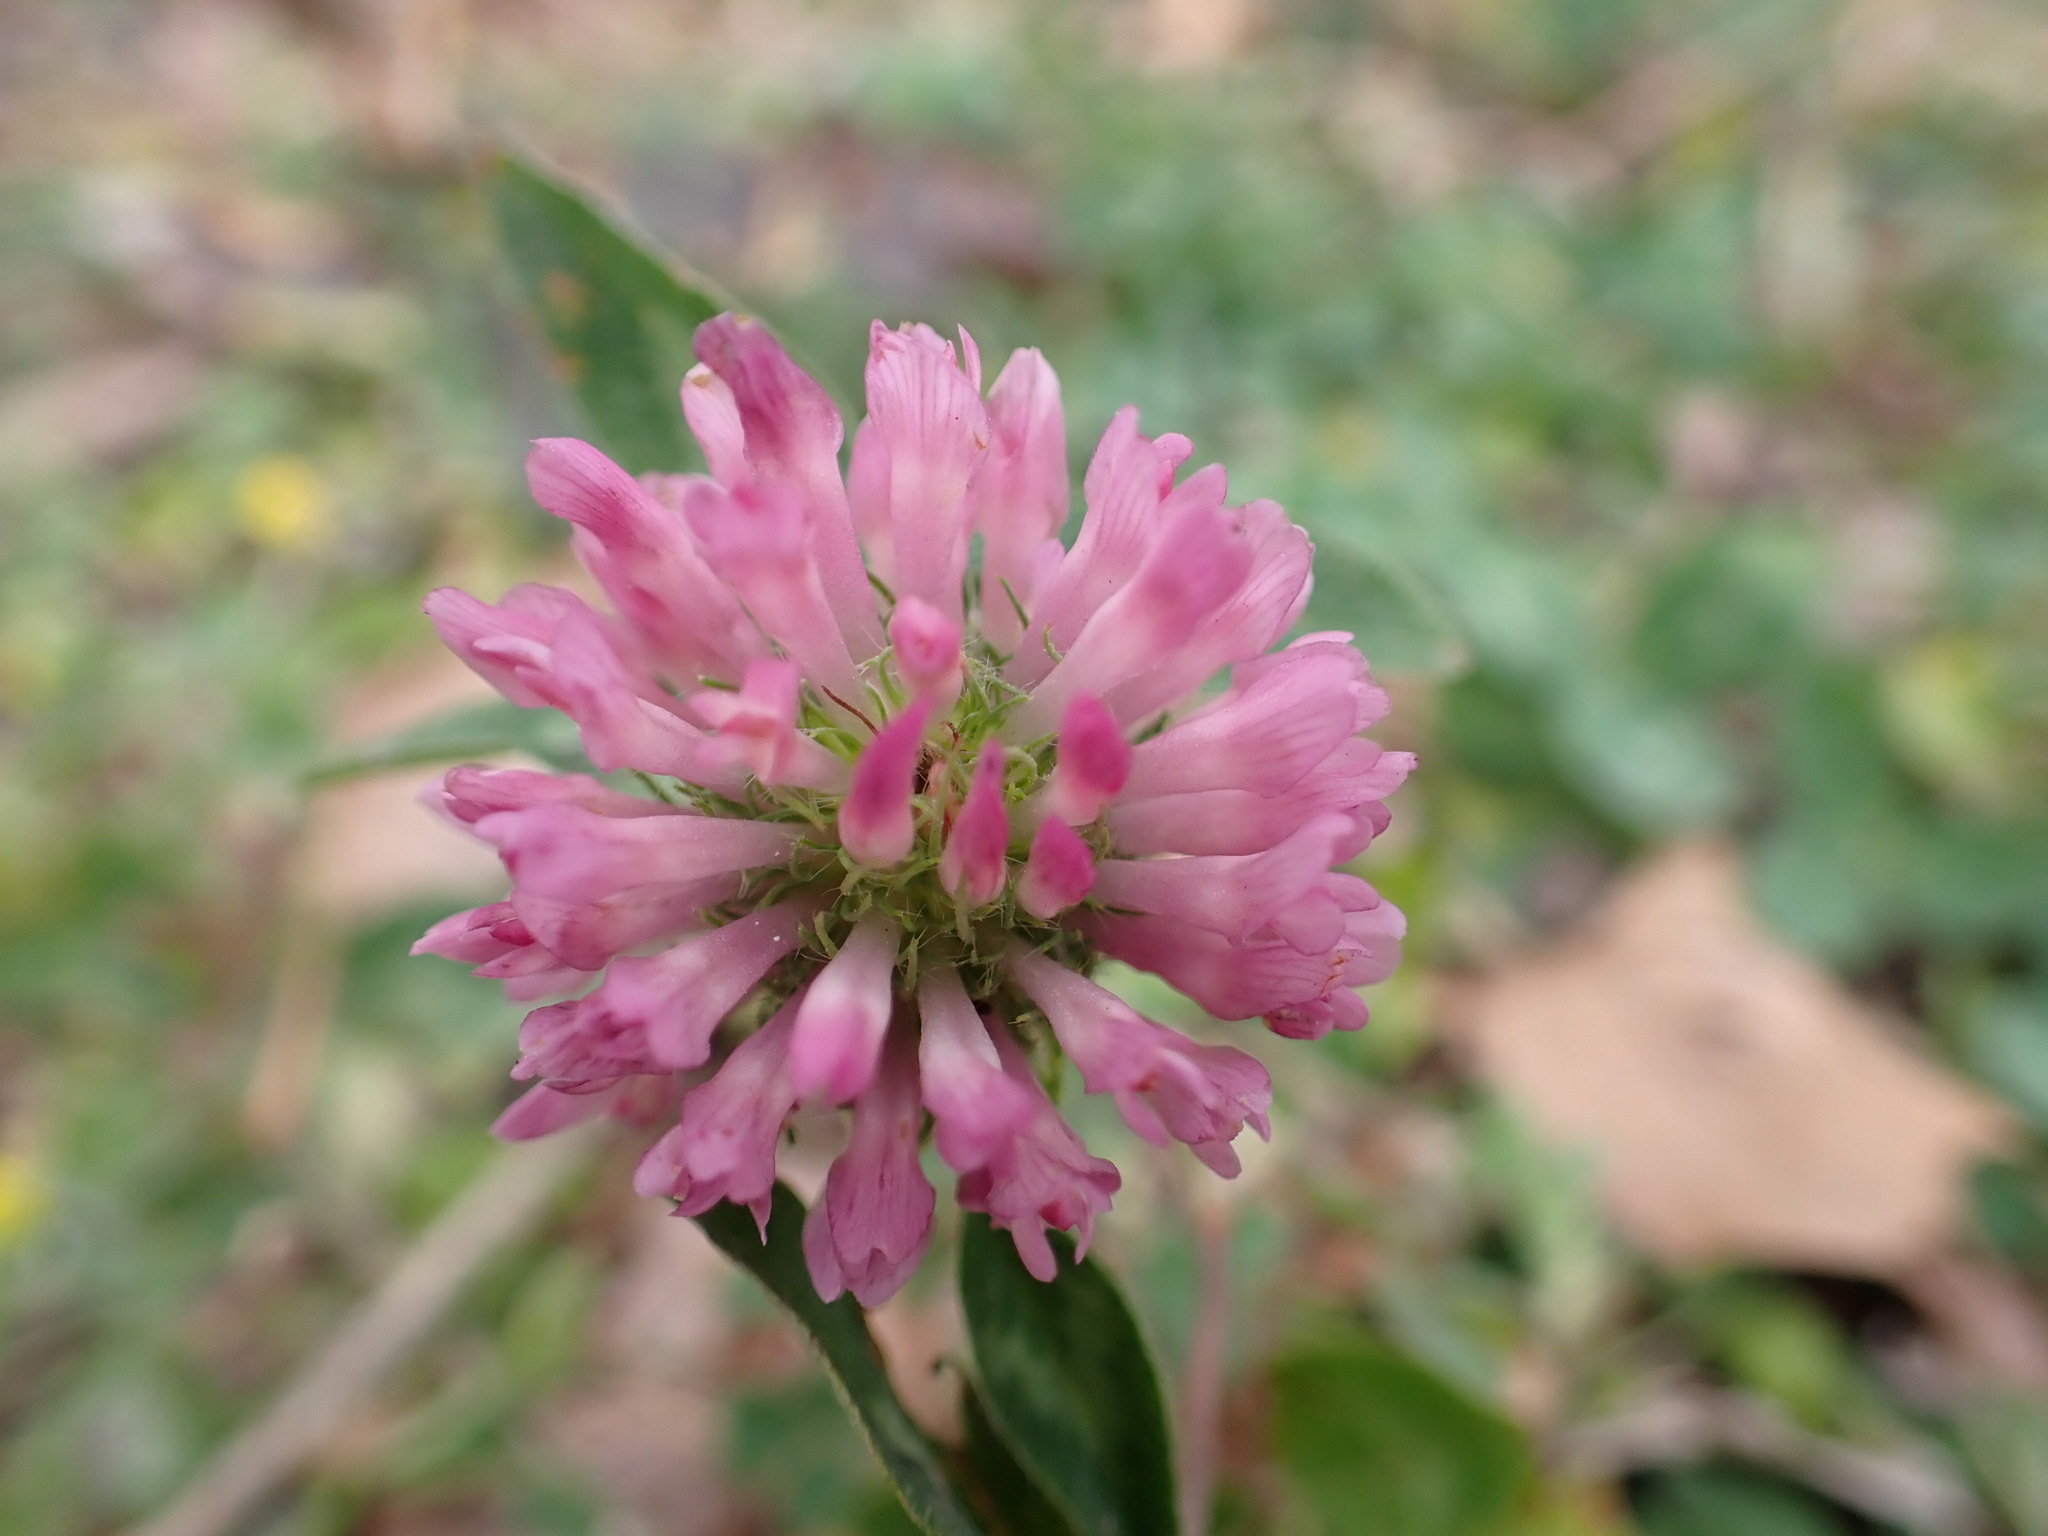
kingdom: Plantae
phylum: Tracheophyta
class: Magnoliopsida
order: Fabales
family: Fabaceae
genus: Trifolium
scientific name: Trifolium pratense
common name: Red clover
